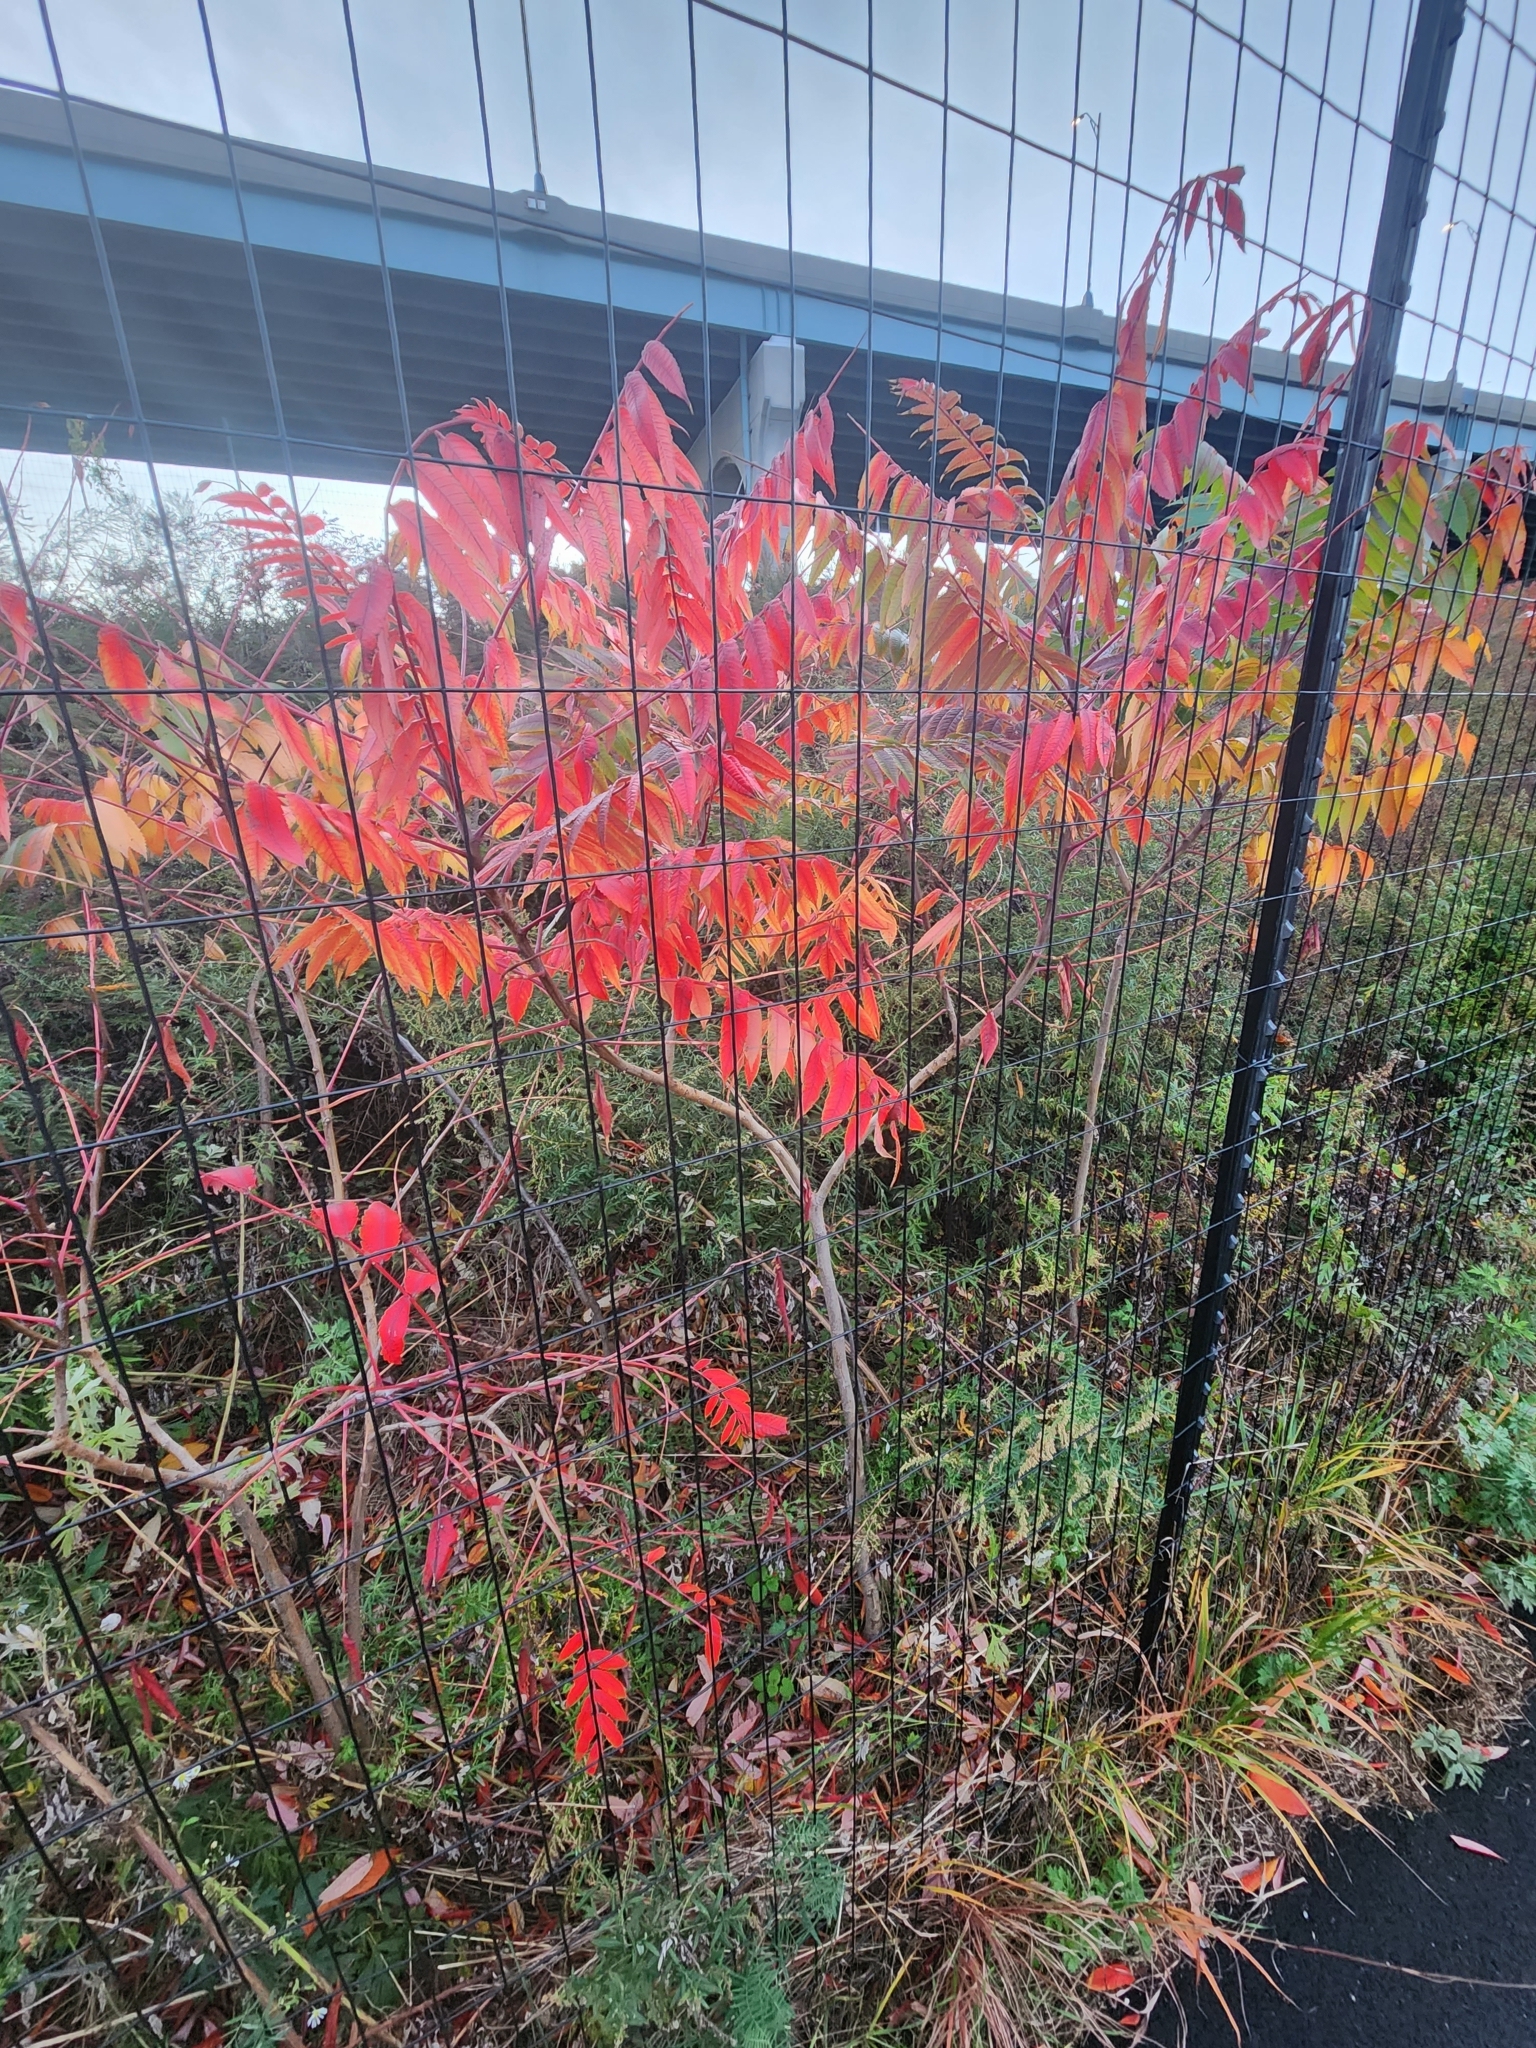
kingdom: Plantae
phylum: Tracheophyta
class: Magnoliopsida
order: Sapindales
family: Anacardiaceae
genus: Rhus
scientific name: Rhus glabra
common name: Scarlet sumac
